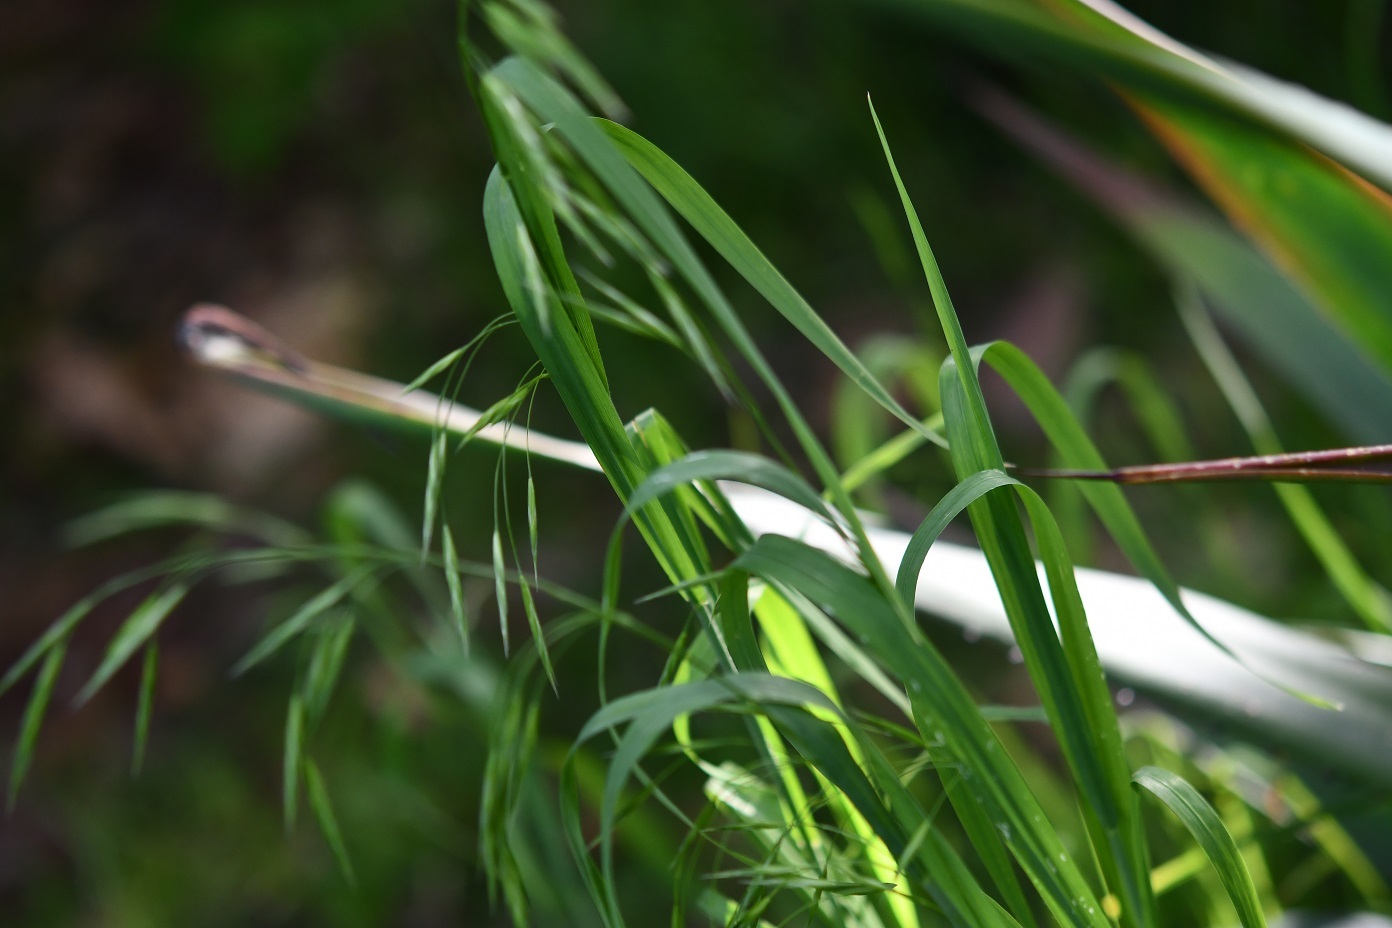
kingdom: Plantae
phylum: Tracheophyta
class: Liliopsida
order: Poales
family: Poaceae
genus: Bromus
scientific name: Bromus anomalus
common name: Nodding brome
